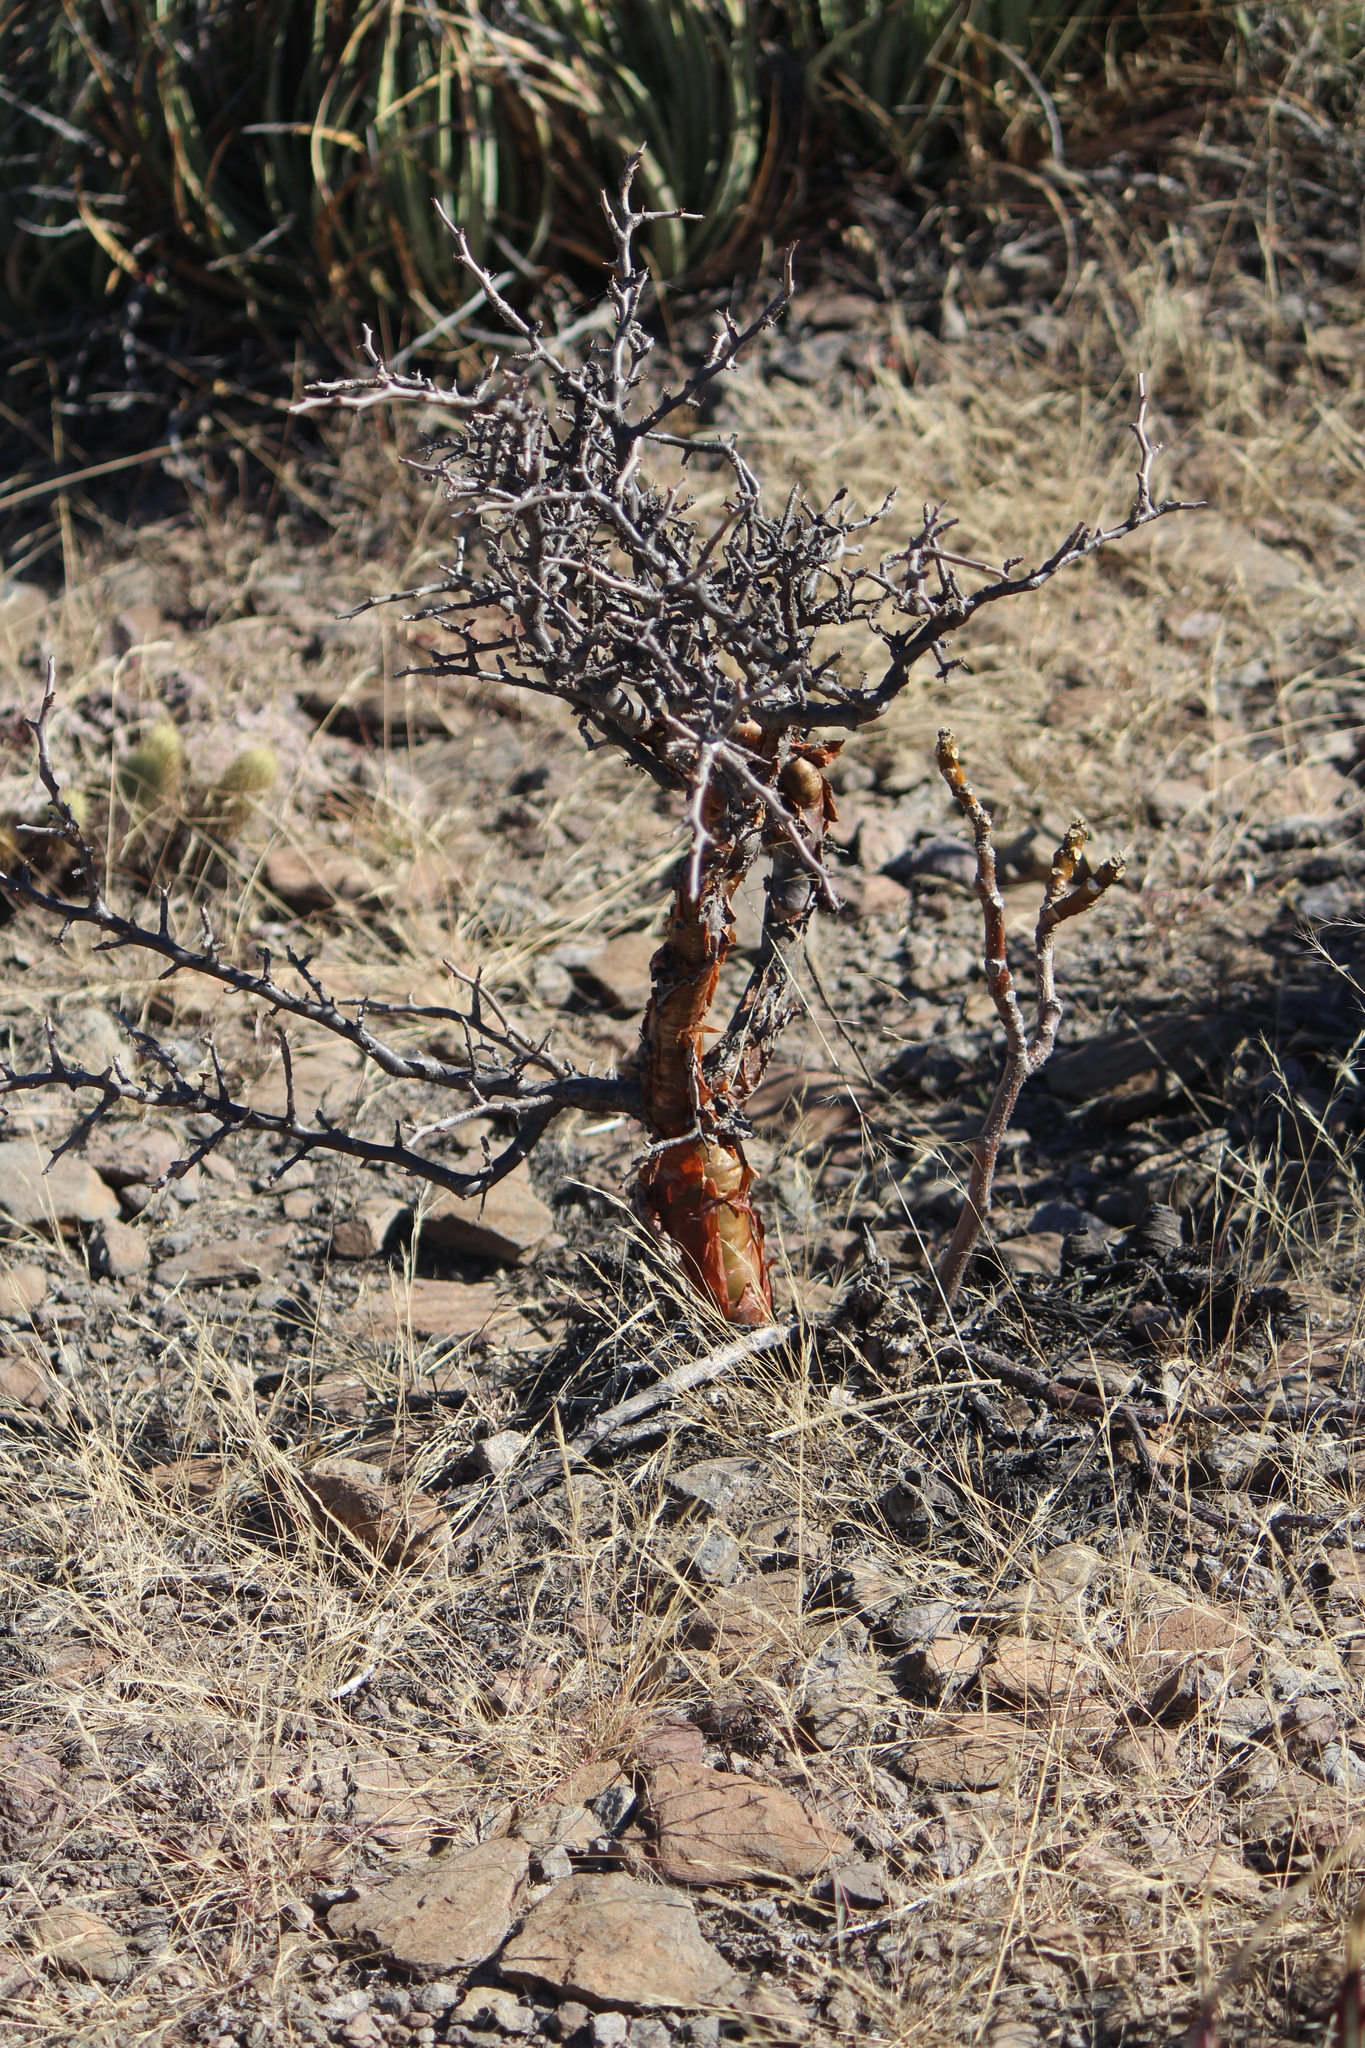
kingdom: Plantae
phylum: Tracheophyta
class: Magnoliopsida
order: Sapindales
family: Burseraceae
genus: Bursera
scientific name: Bursera schlechtendalii
